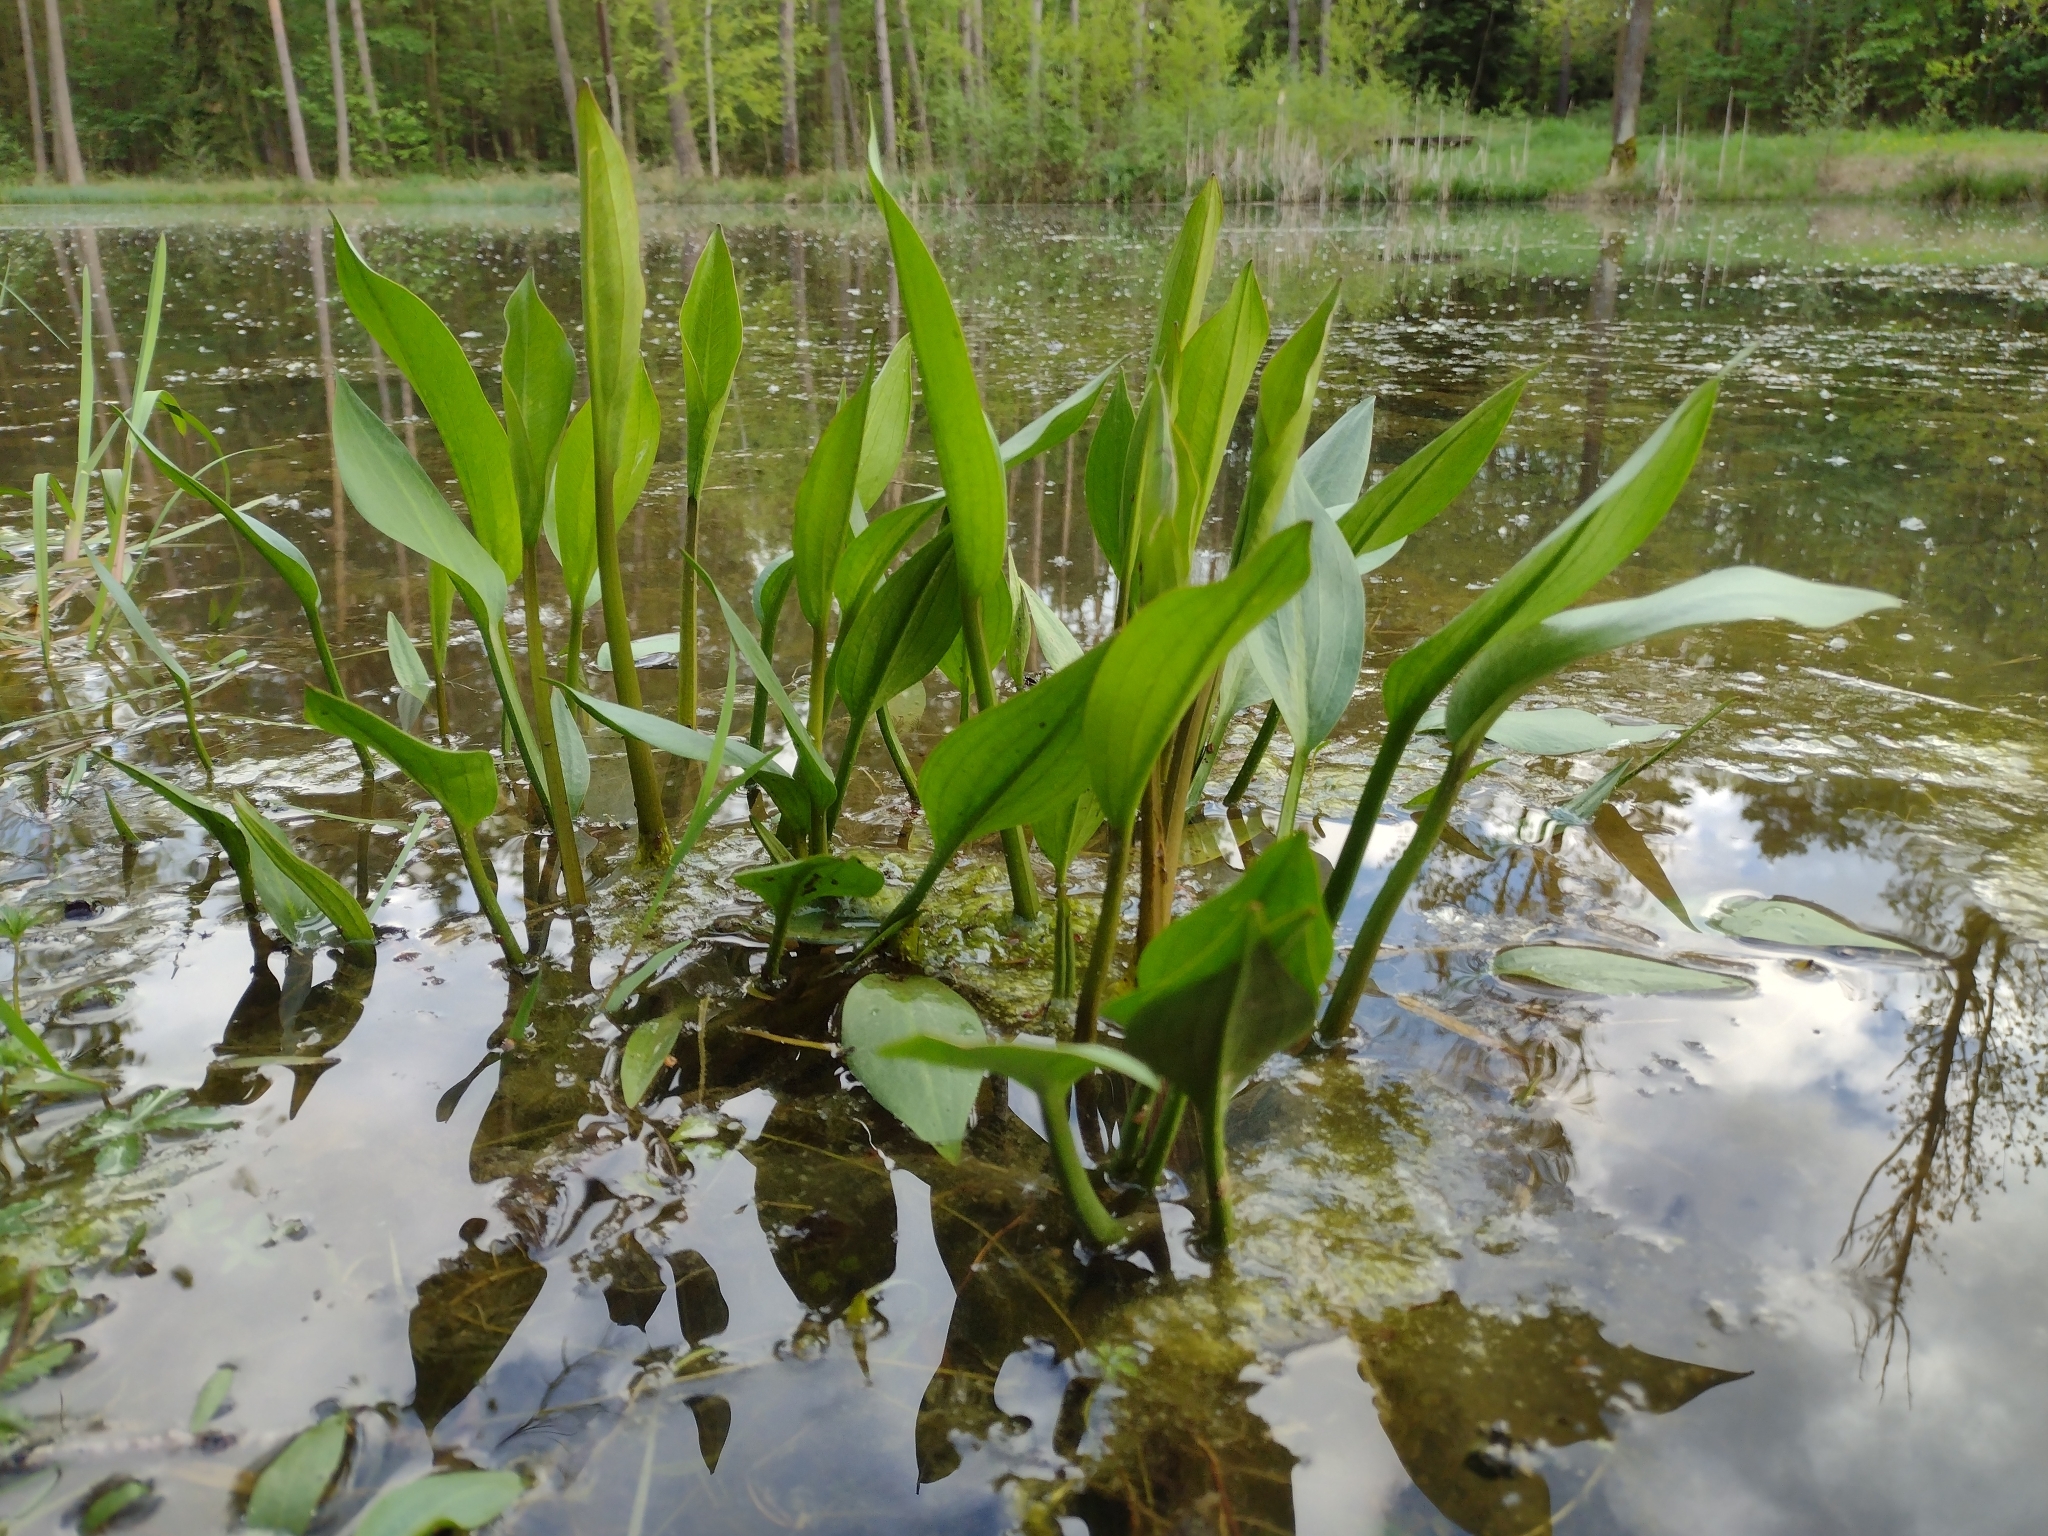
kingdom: Plantae
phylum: Tracheophyta
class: Liliopsida
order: Alismatales
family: Alismataceae
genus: Alisma
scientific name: Alisma plantago-aquatica
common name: Water-plantain
